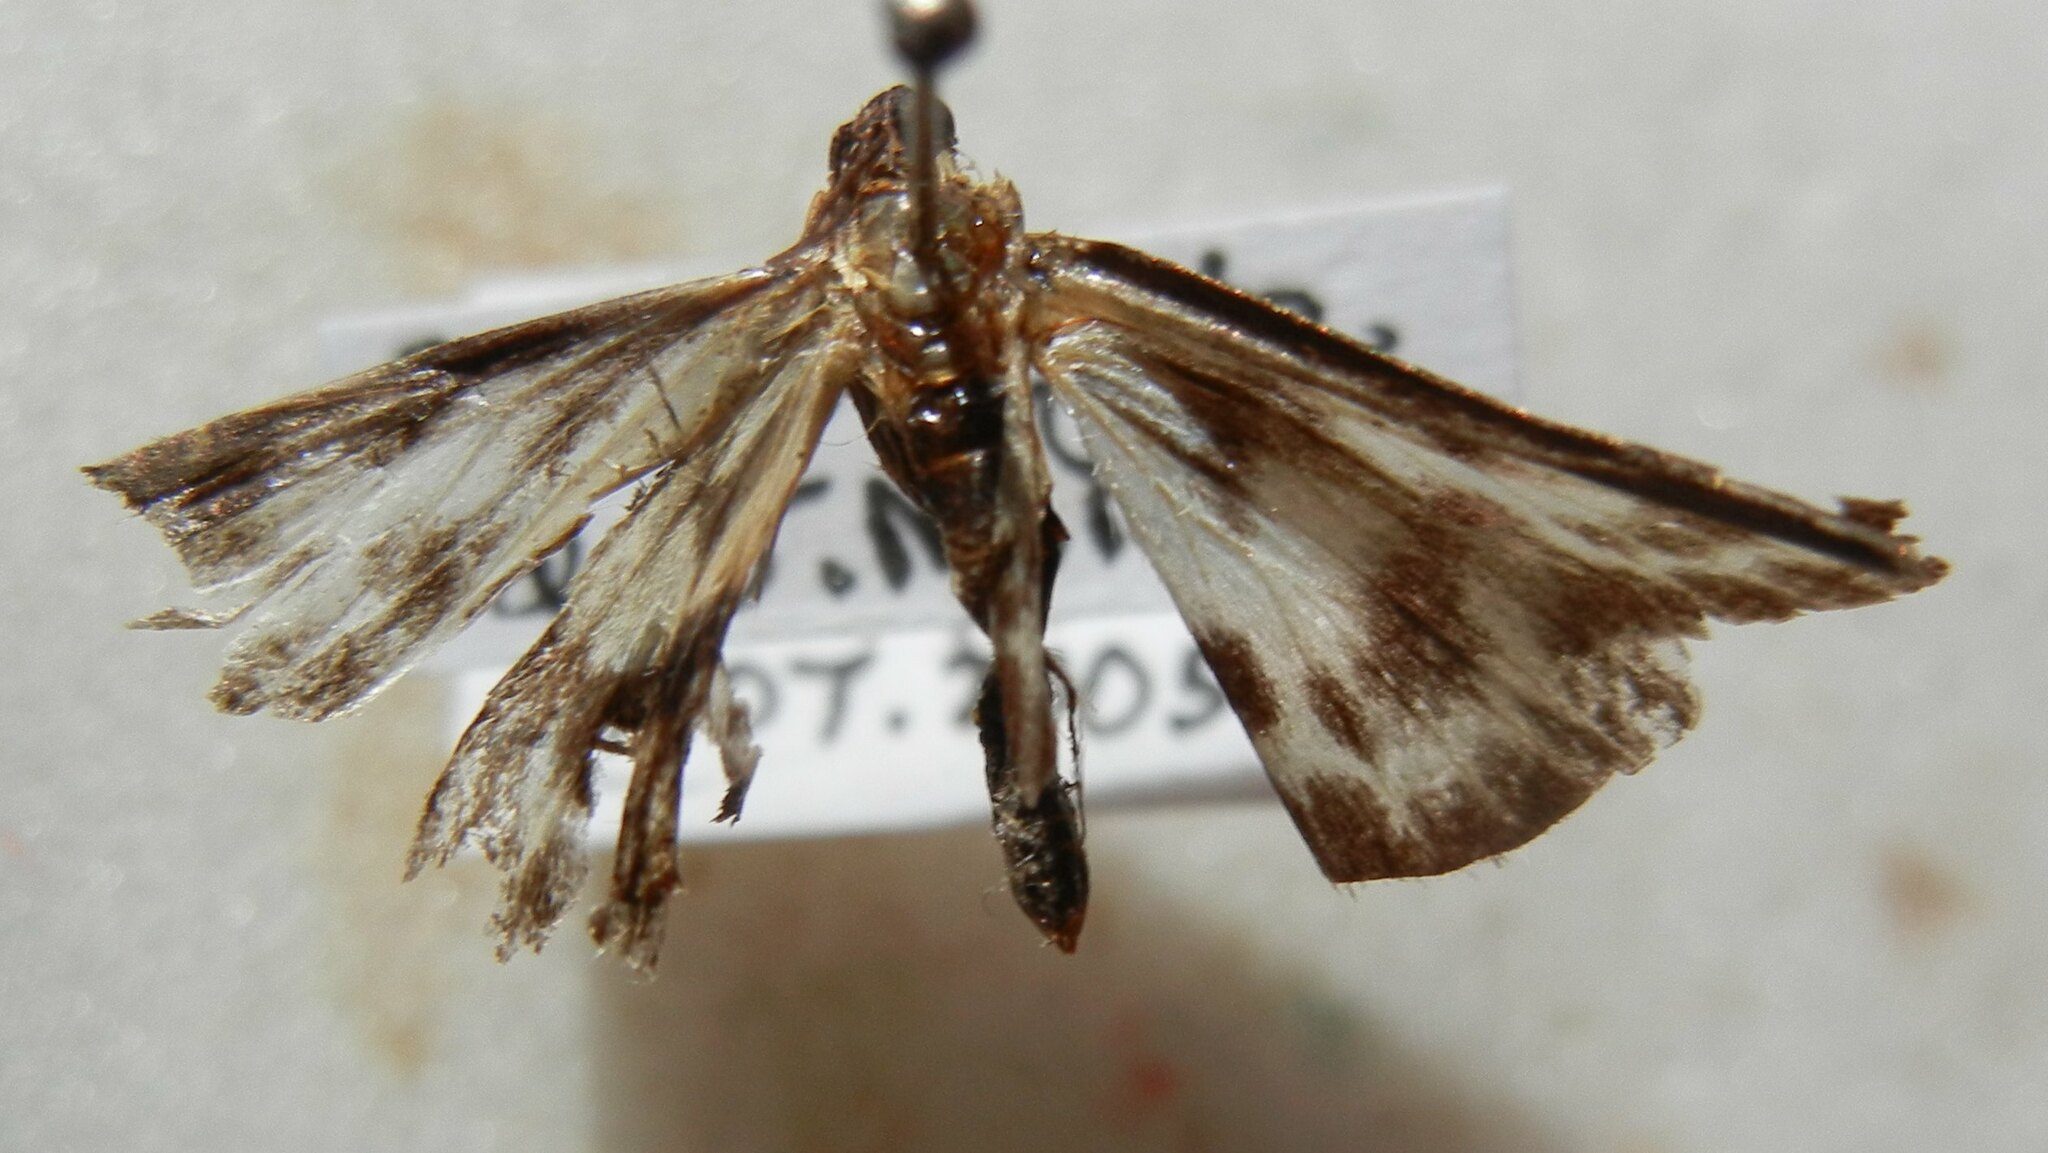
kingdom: Animalia
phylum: Arthropoda
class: Insecta
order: Lepidoptera
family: Crambidae
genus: Anania
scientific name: Anania hortulata
